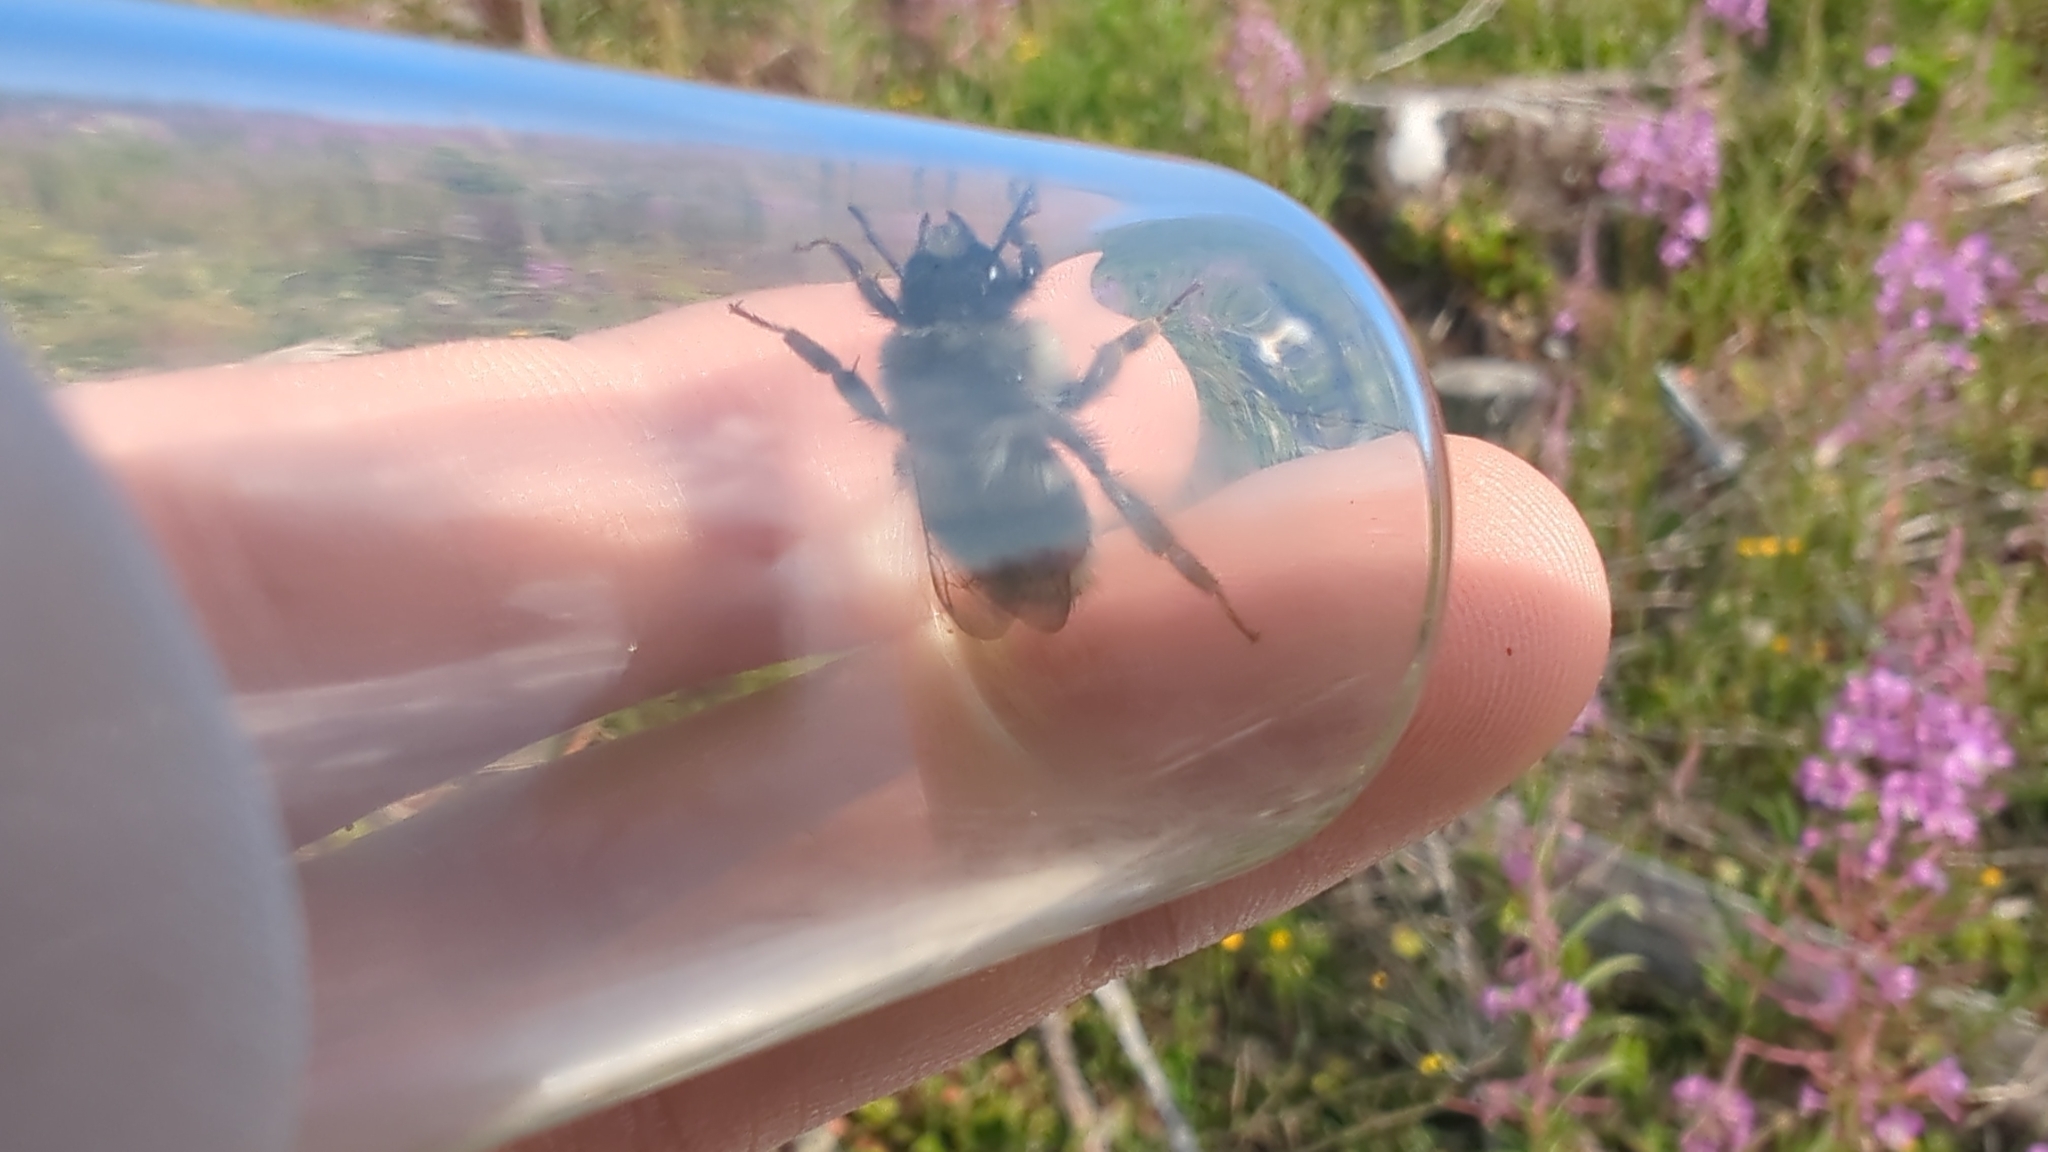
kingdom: Animalia
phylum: Arthropoda
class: Insecta
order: Hymenoptera
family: Apidae
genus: Bombus
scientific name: Bombus vancouverensis
